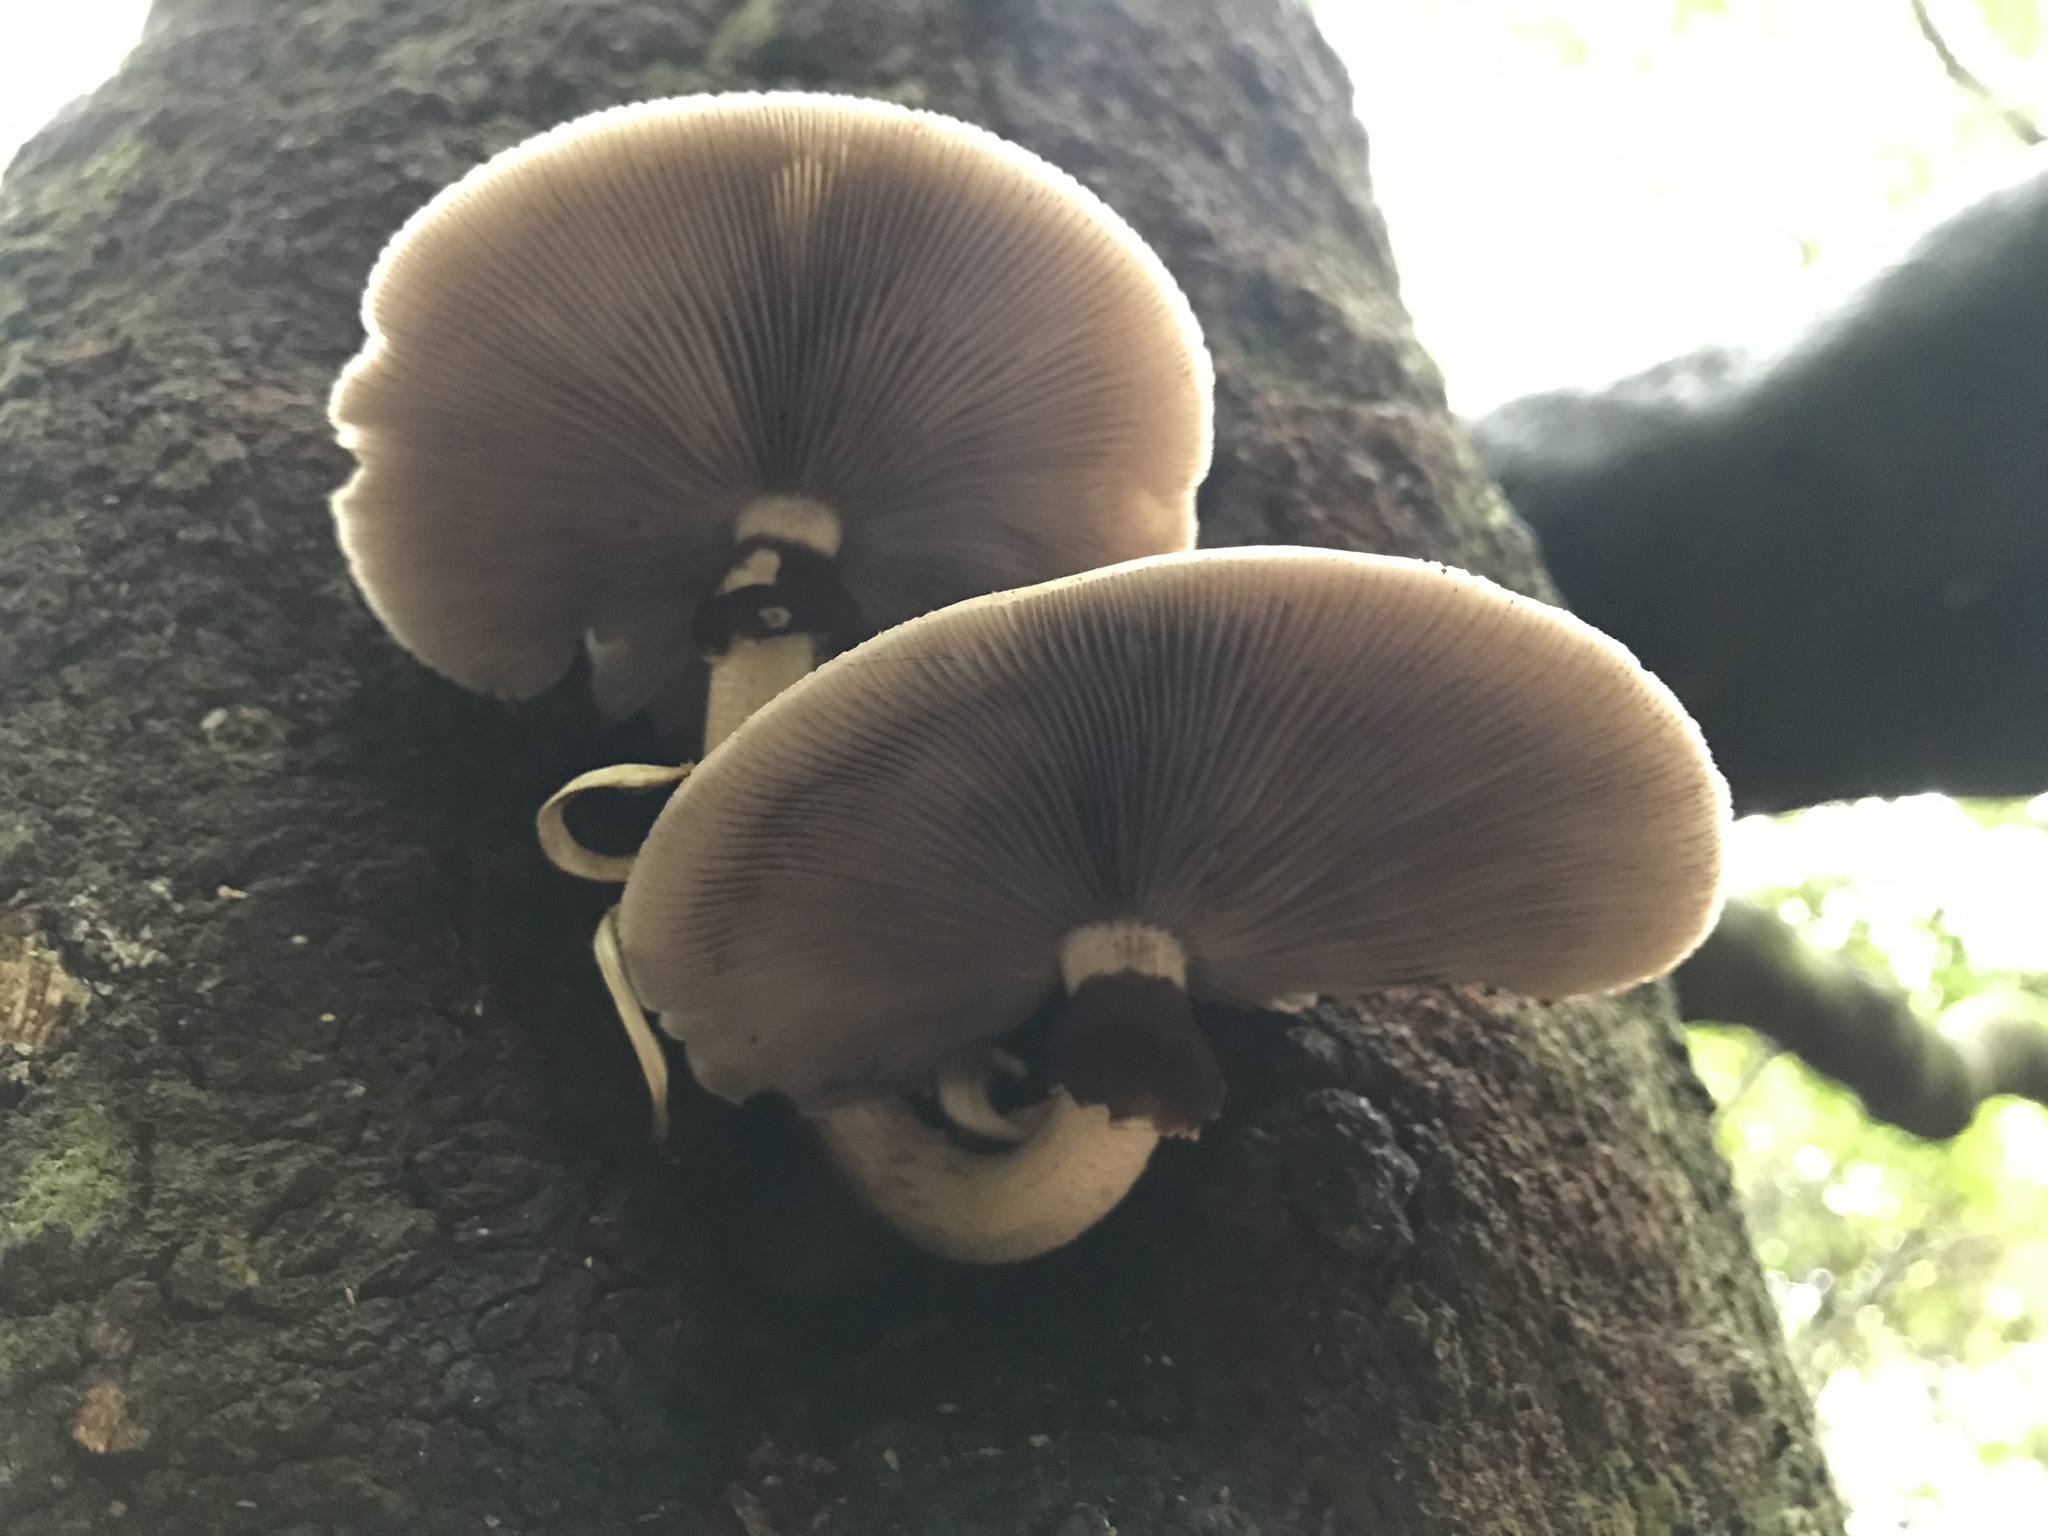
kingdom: Fungi
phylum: Basidiomycota
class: Agaricomycetes
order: Agaricales
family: Tubariaceae
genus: Cyclocybe
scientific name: Cyclocybe parasitica
